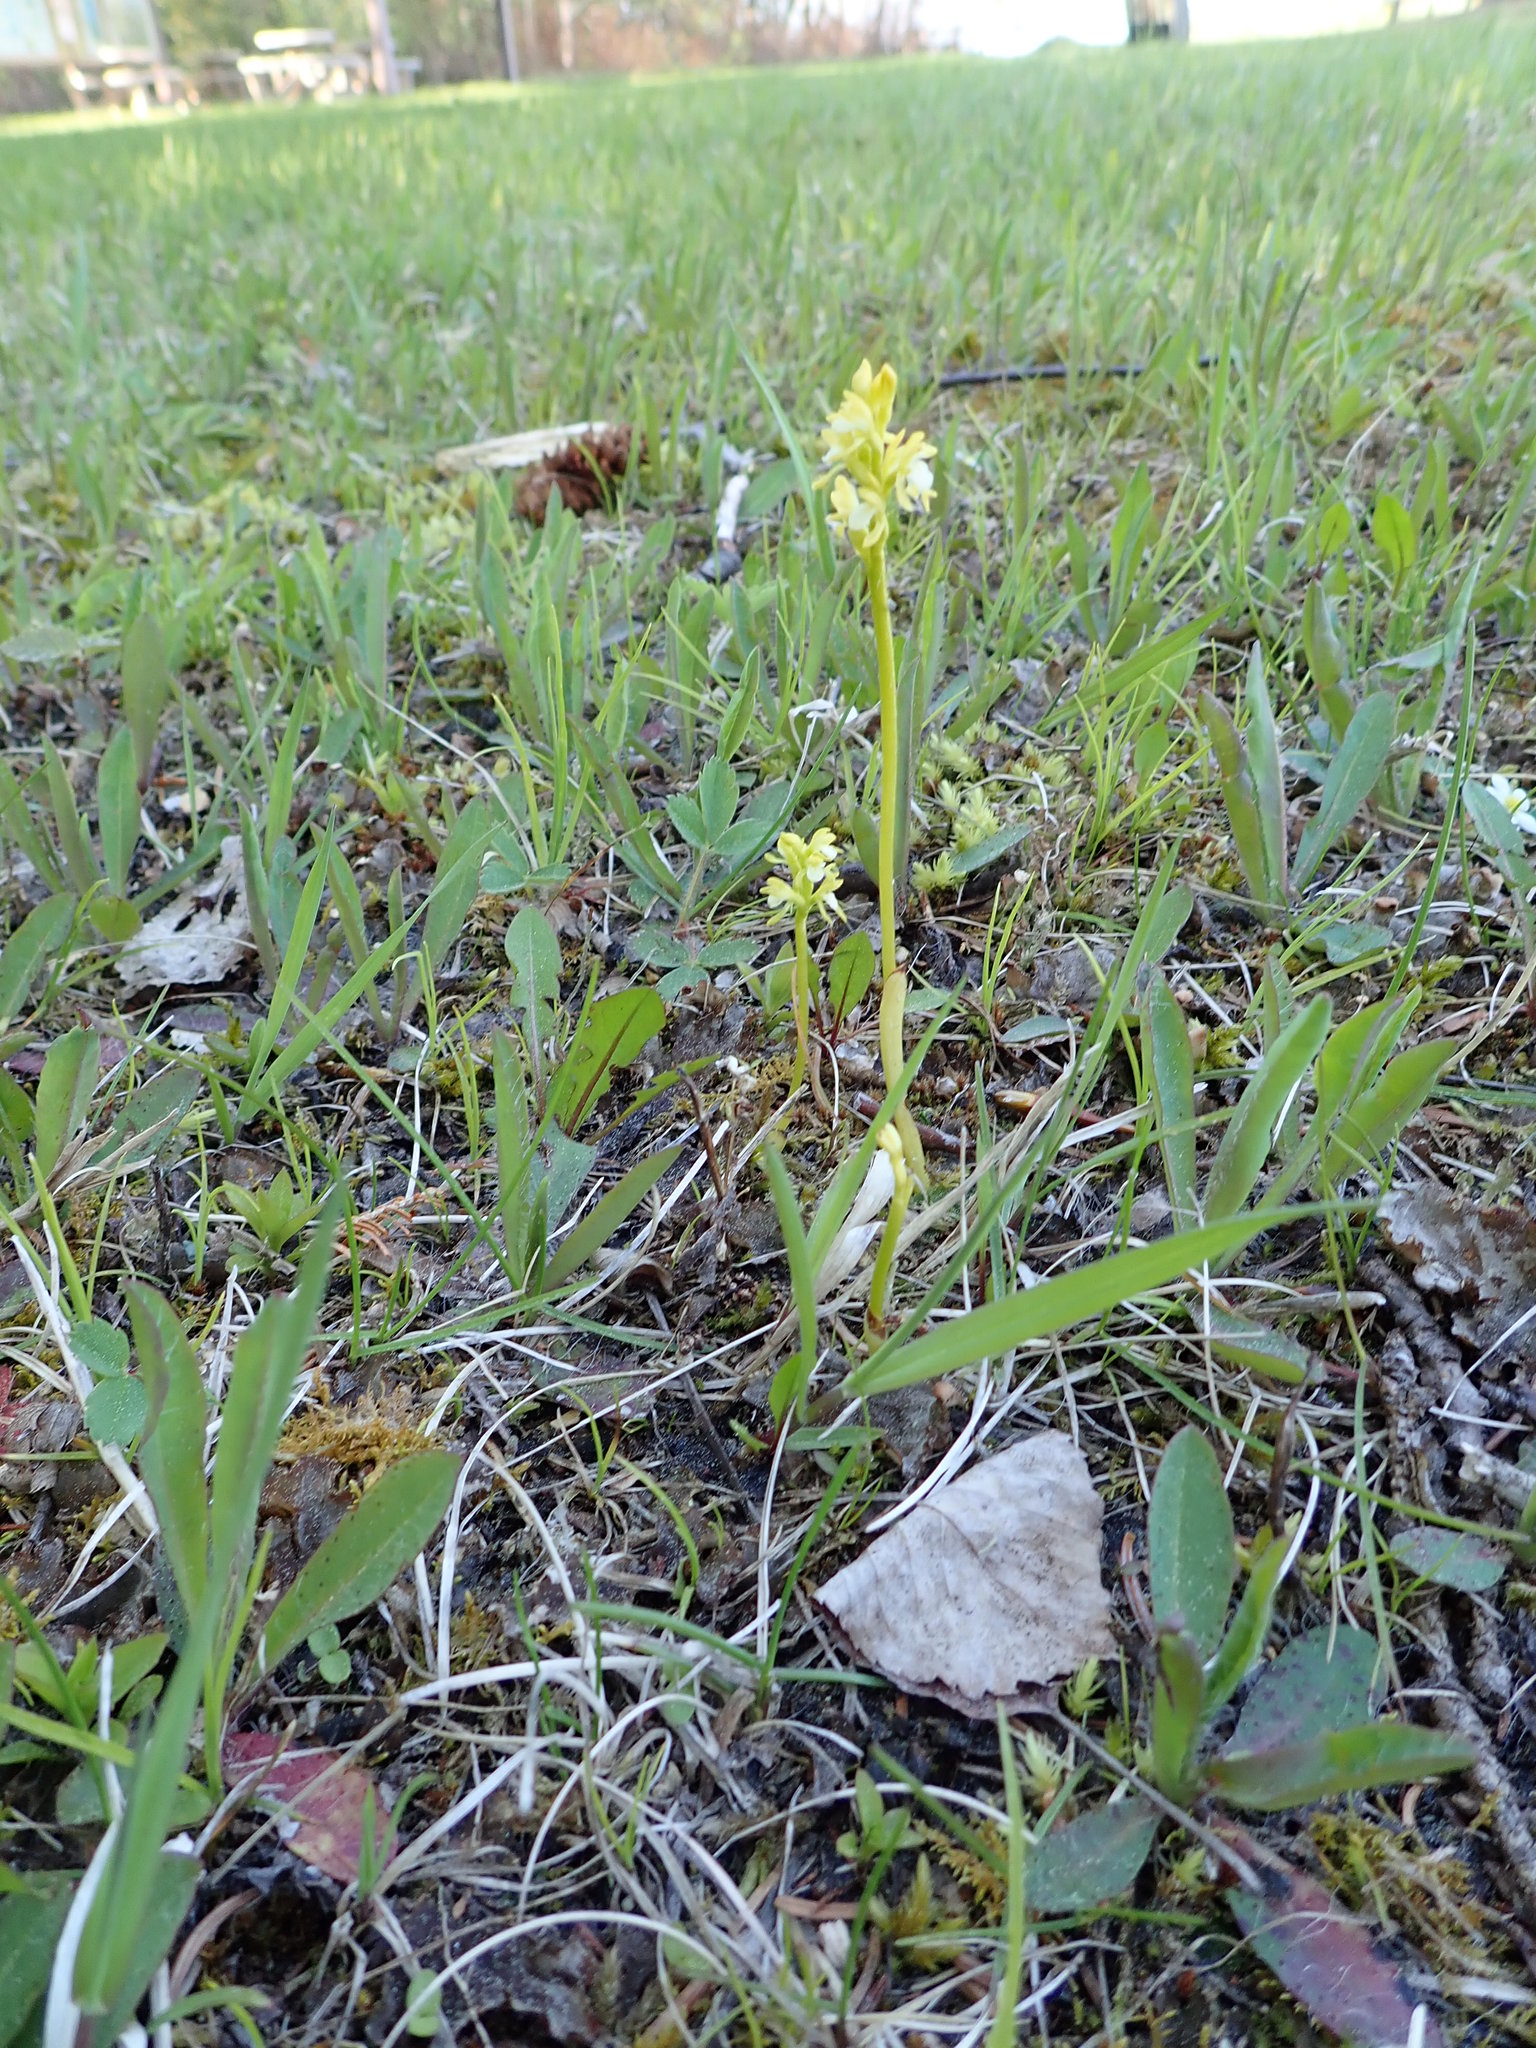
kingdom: Plantae
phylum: Tracheophyta
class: Liliopsida
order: Asparagales
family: Orchidaceae
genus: Corallorhiza
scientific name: Corallorhiza trifida
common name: Yellow coralroot
